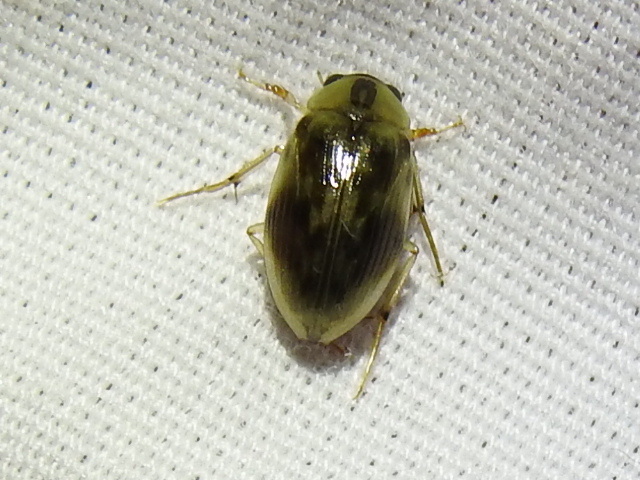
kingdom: Animalia
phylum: Arthropoda
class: Insecta
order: Coleoptera
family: Hydrophilidae
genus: Berosus
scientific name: Berosus miles
